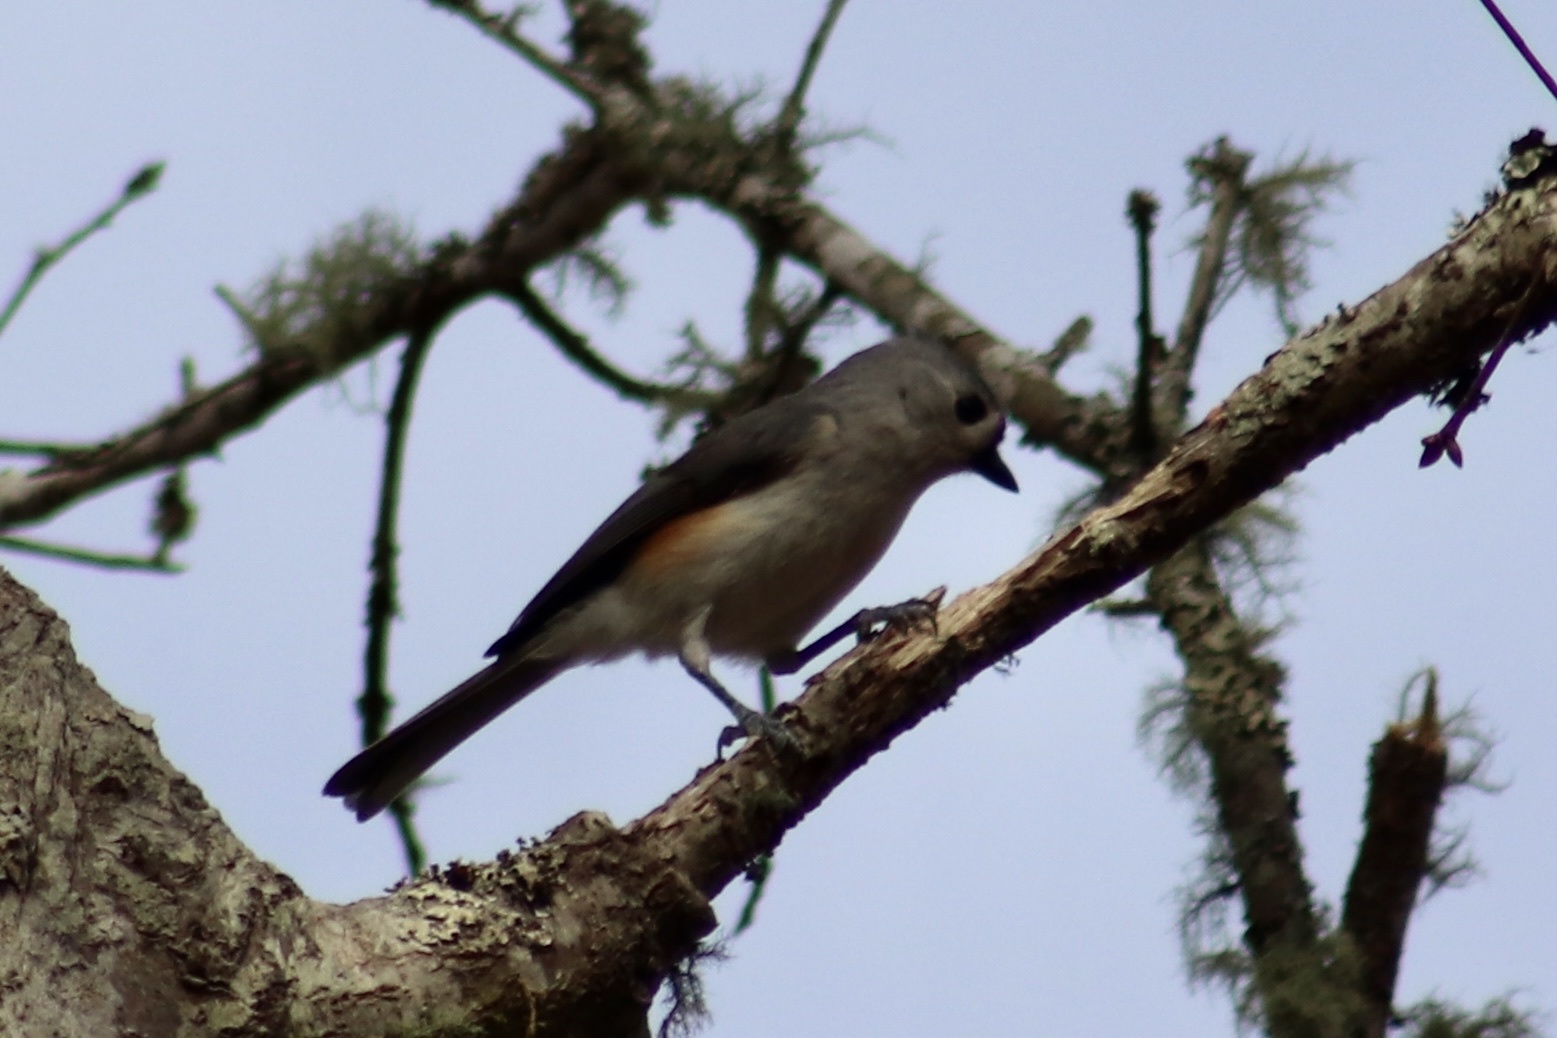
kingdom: Animalia
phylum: Chordata
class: Aves
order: Passeriformes
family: Paridae
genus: Baeolophus
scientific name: Baeolophus bicolor
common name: Tufted titmouse
